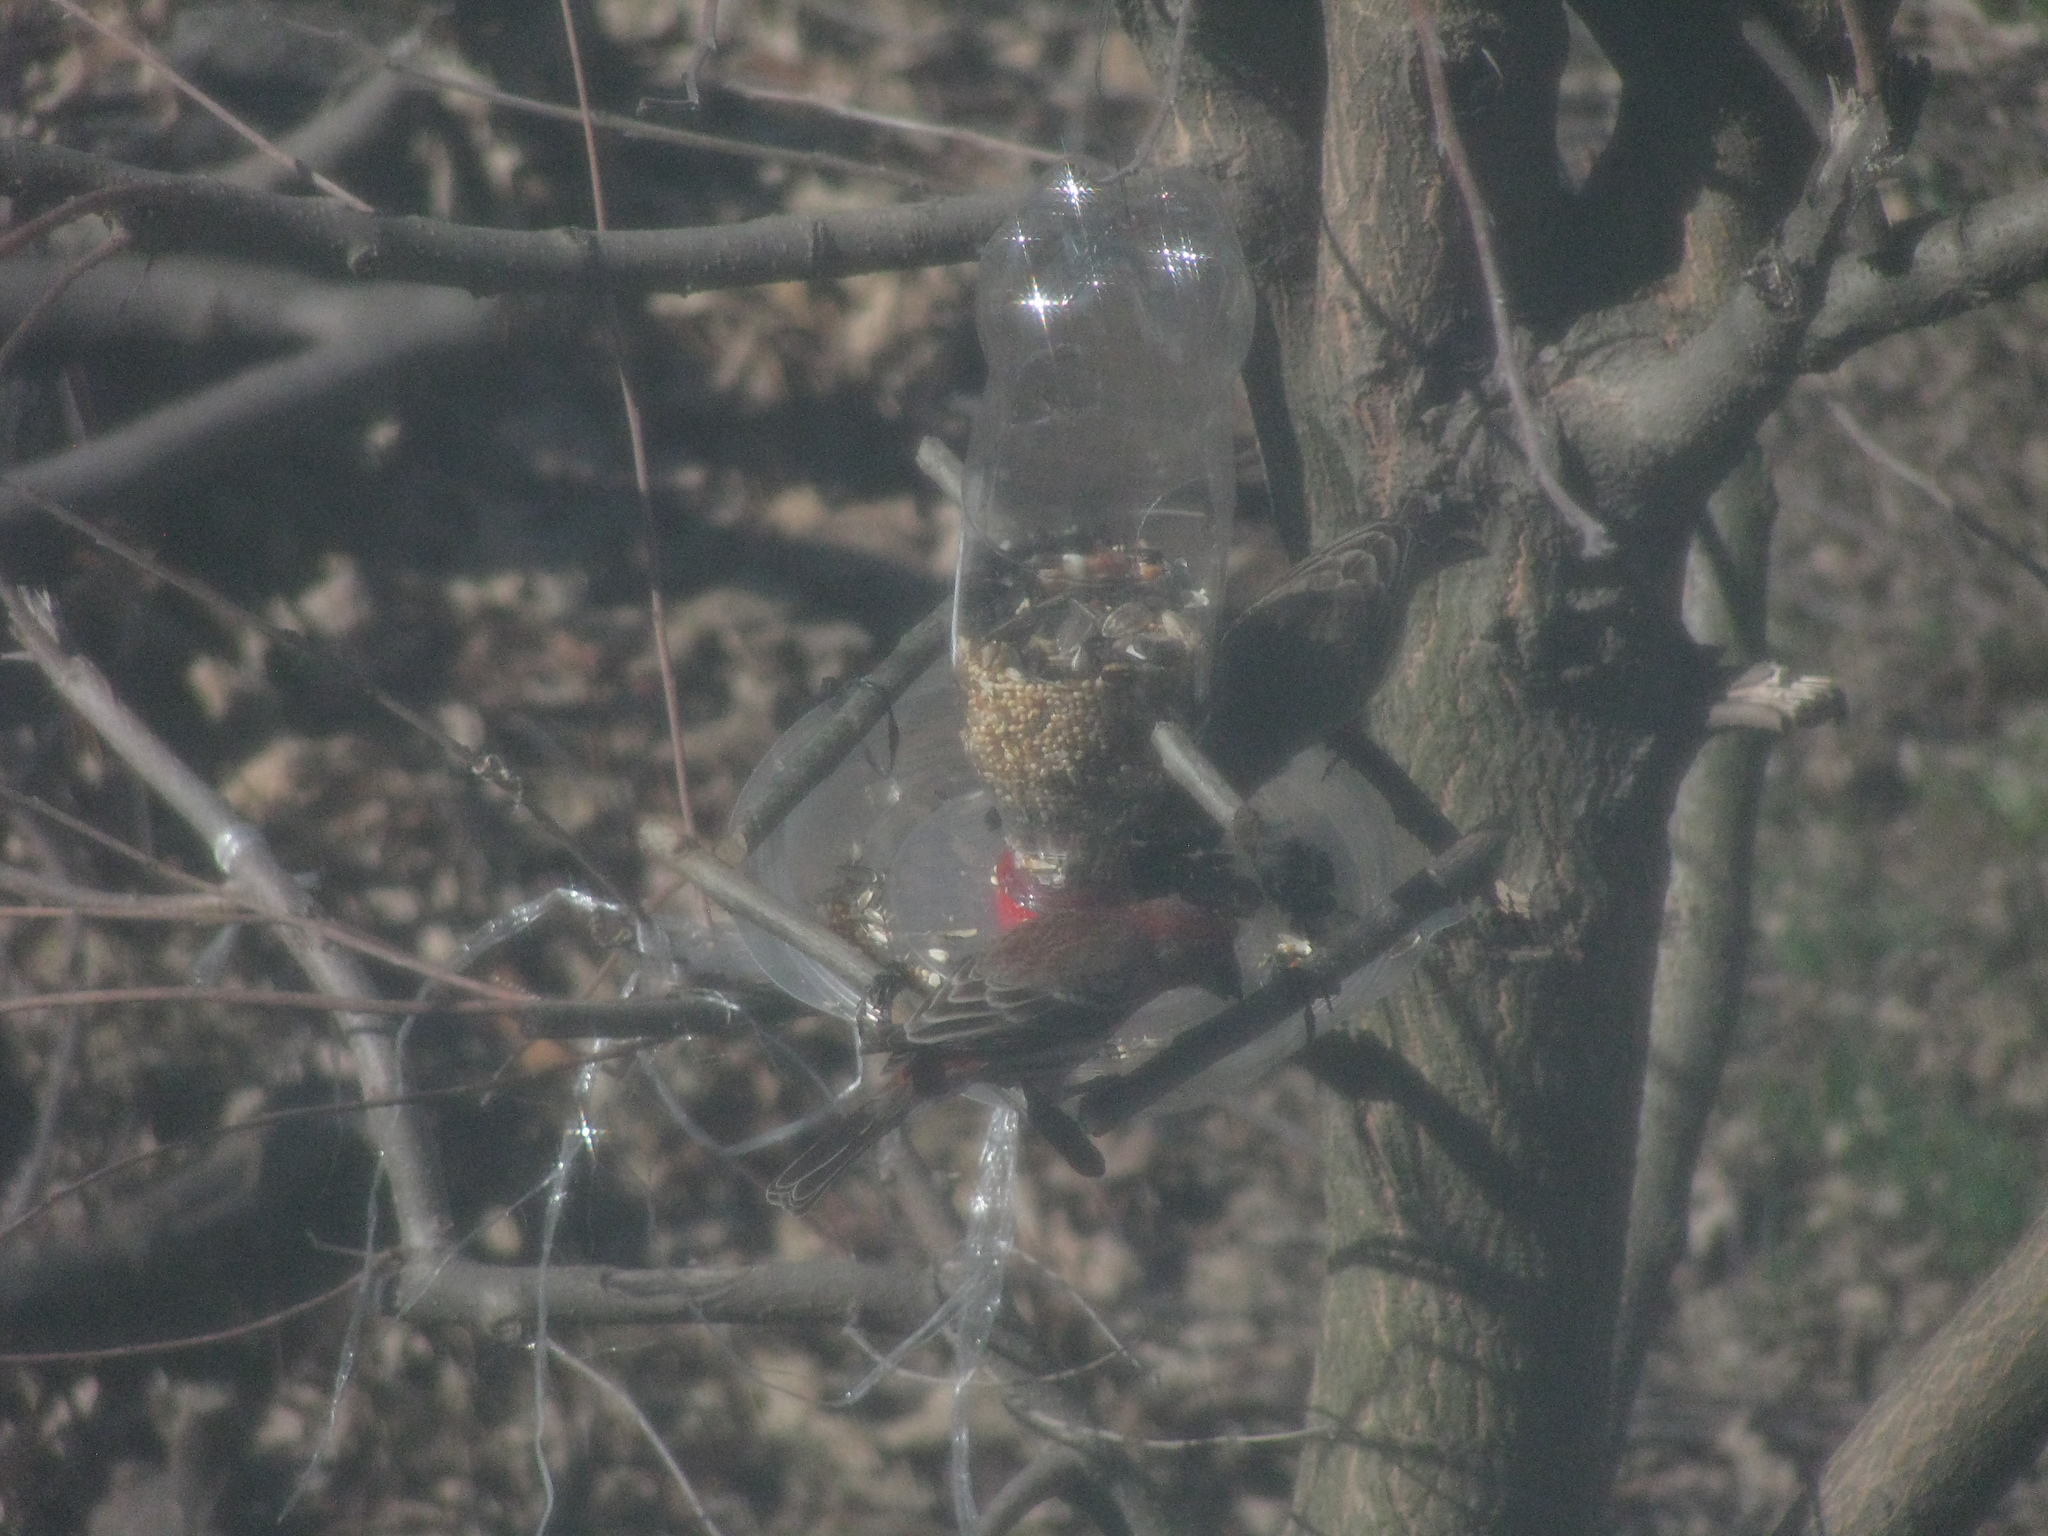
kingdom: Animalia
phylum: Chordata
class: Aves
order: Passeriformes
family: Fringillidae
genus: Haemorhous
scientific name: Haemorhous mexicanus
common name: House finch
